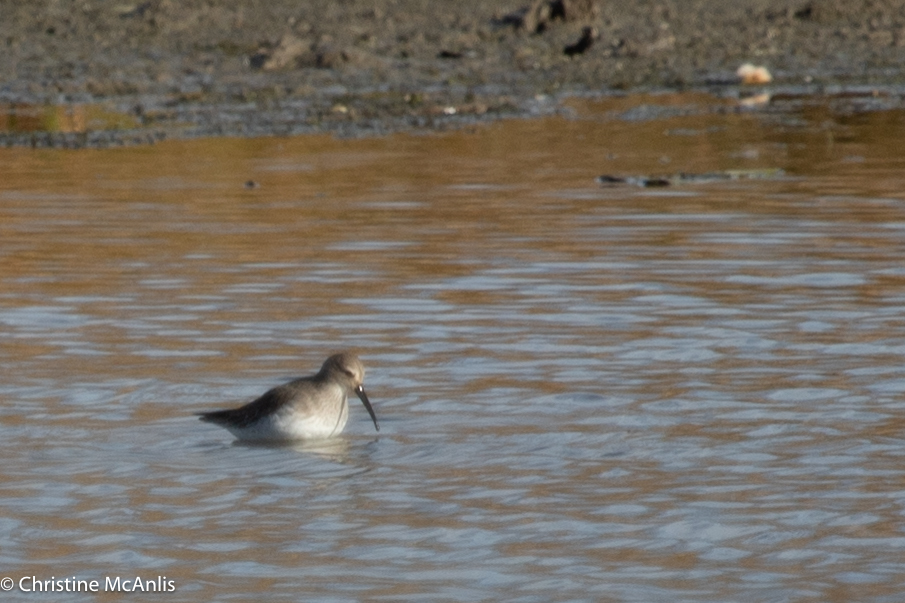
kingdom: Animalia
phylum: Chordata
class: Aves
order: Charadriiformes
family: Scolopacidae
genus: Calidris
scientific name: Calidris alpina
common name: Dunlin
